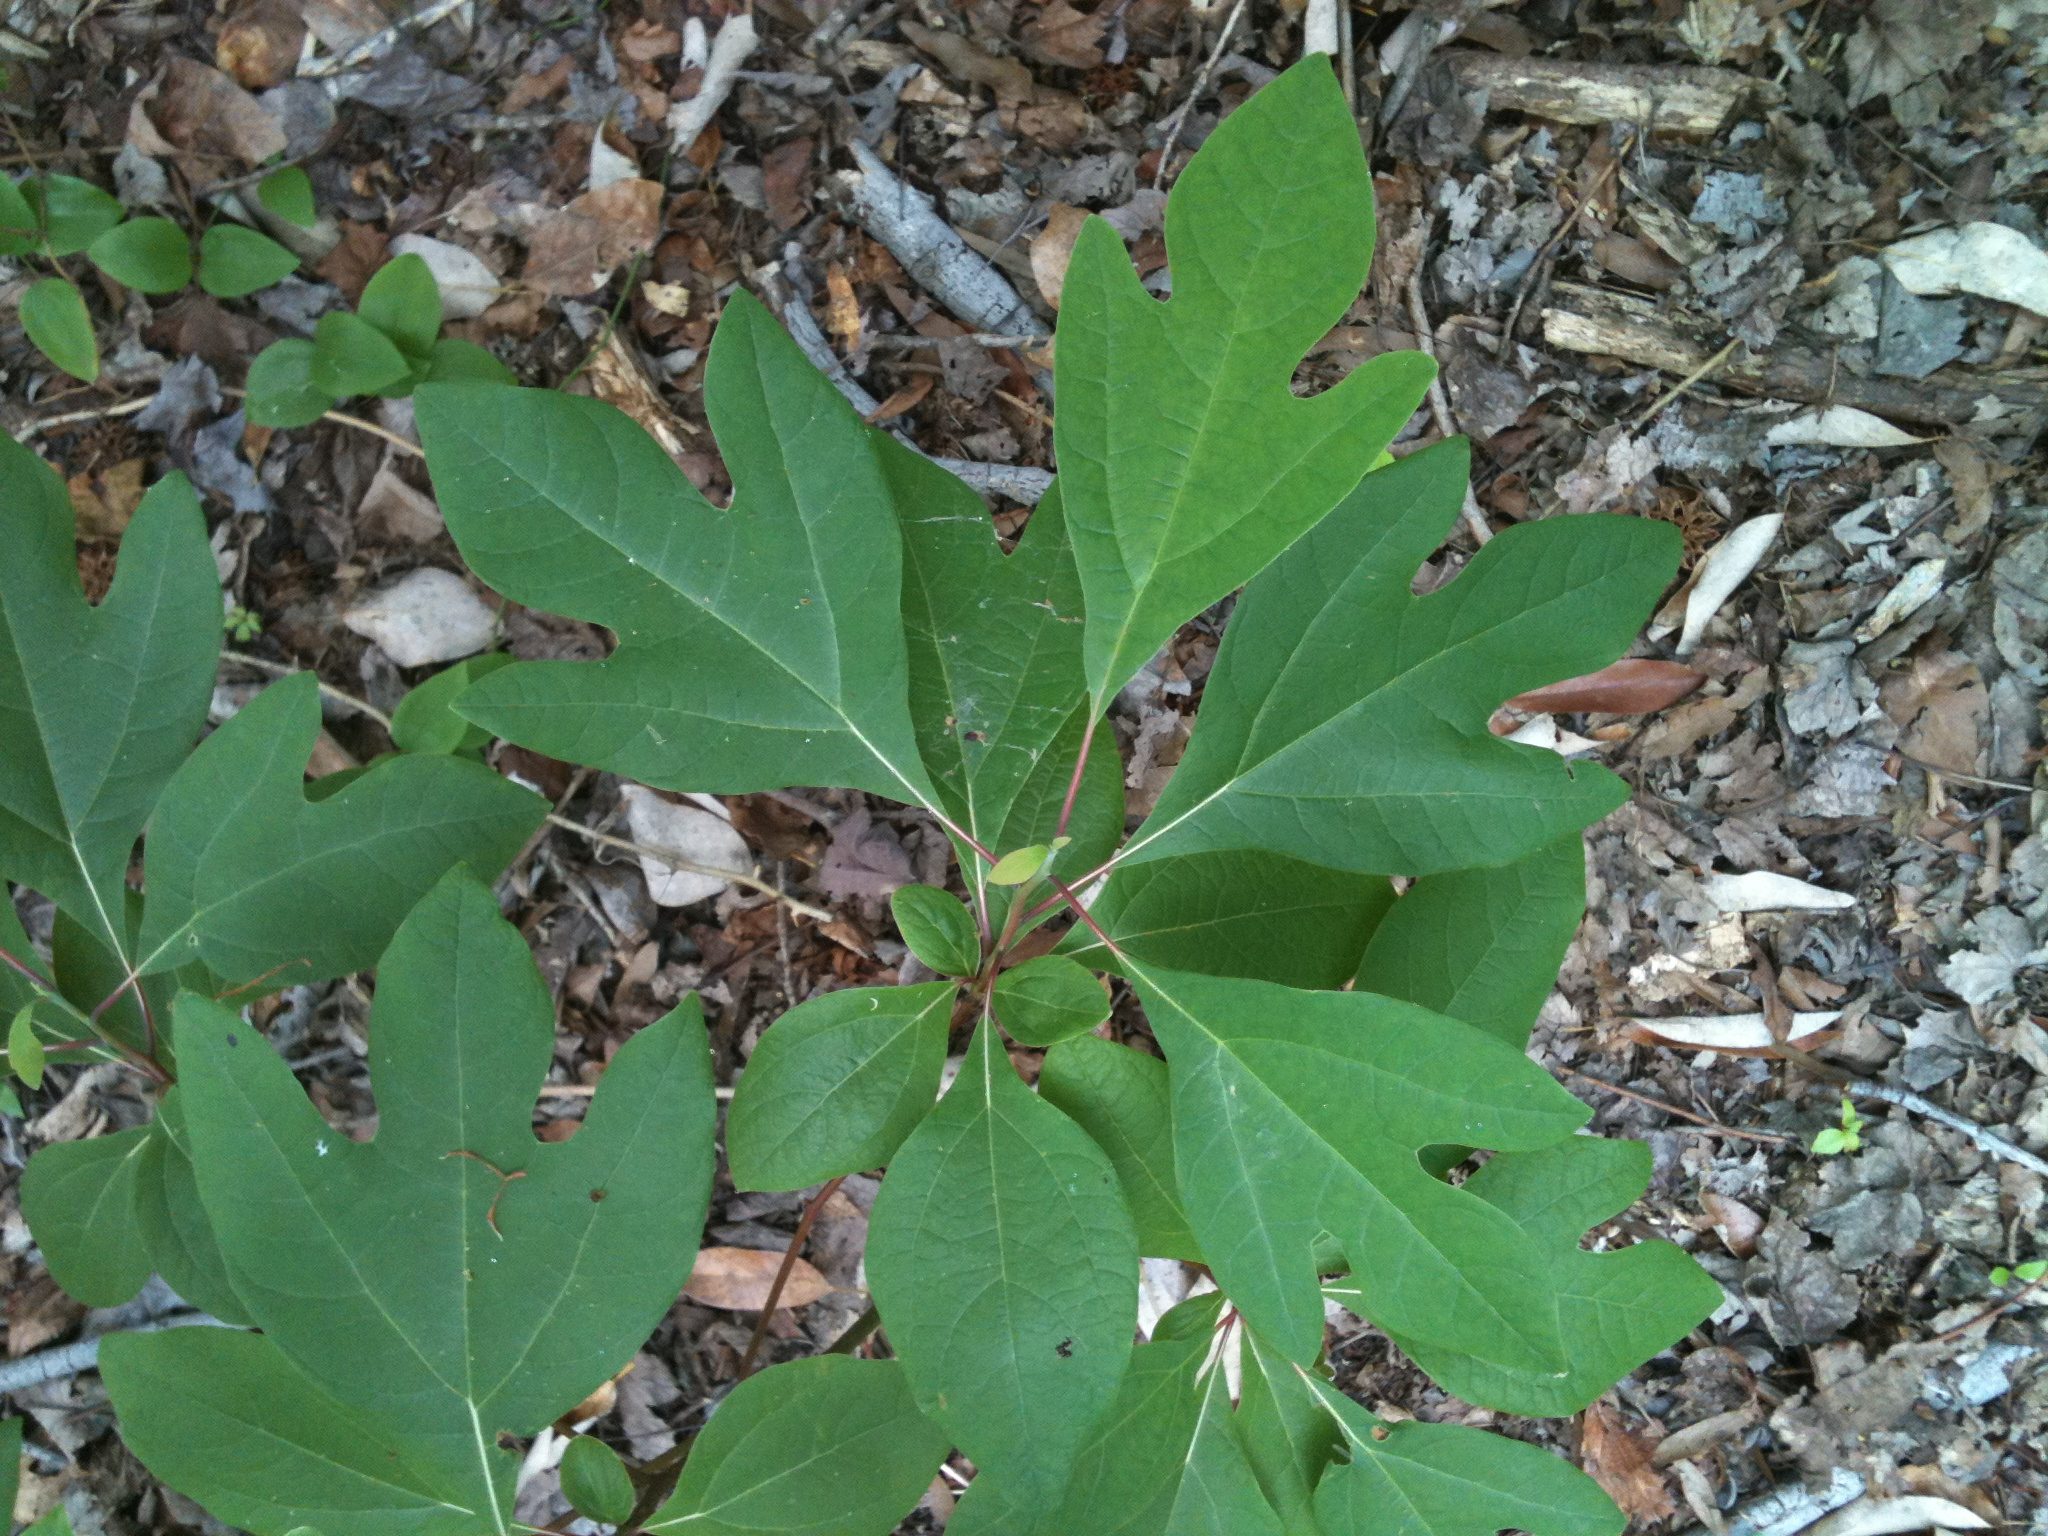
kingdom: Plantae
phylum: Tracheophyta
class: Magnoliopsida
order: Laurales
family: Lauraceae
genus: Sassafras
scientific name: Sassafras albidum
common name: Sassafras
